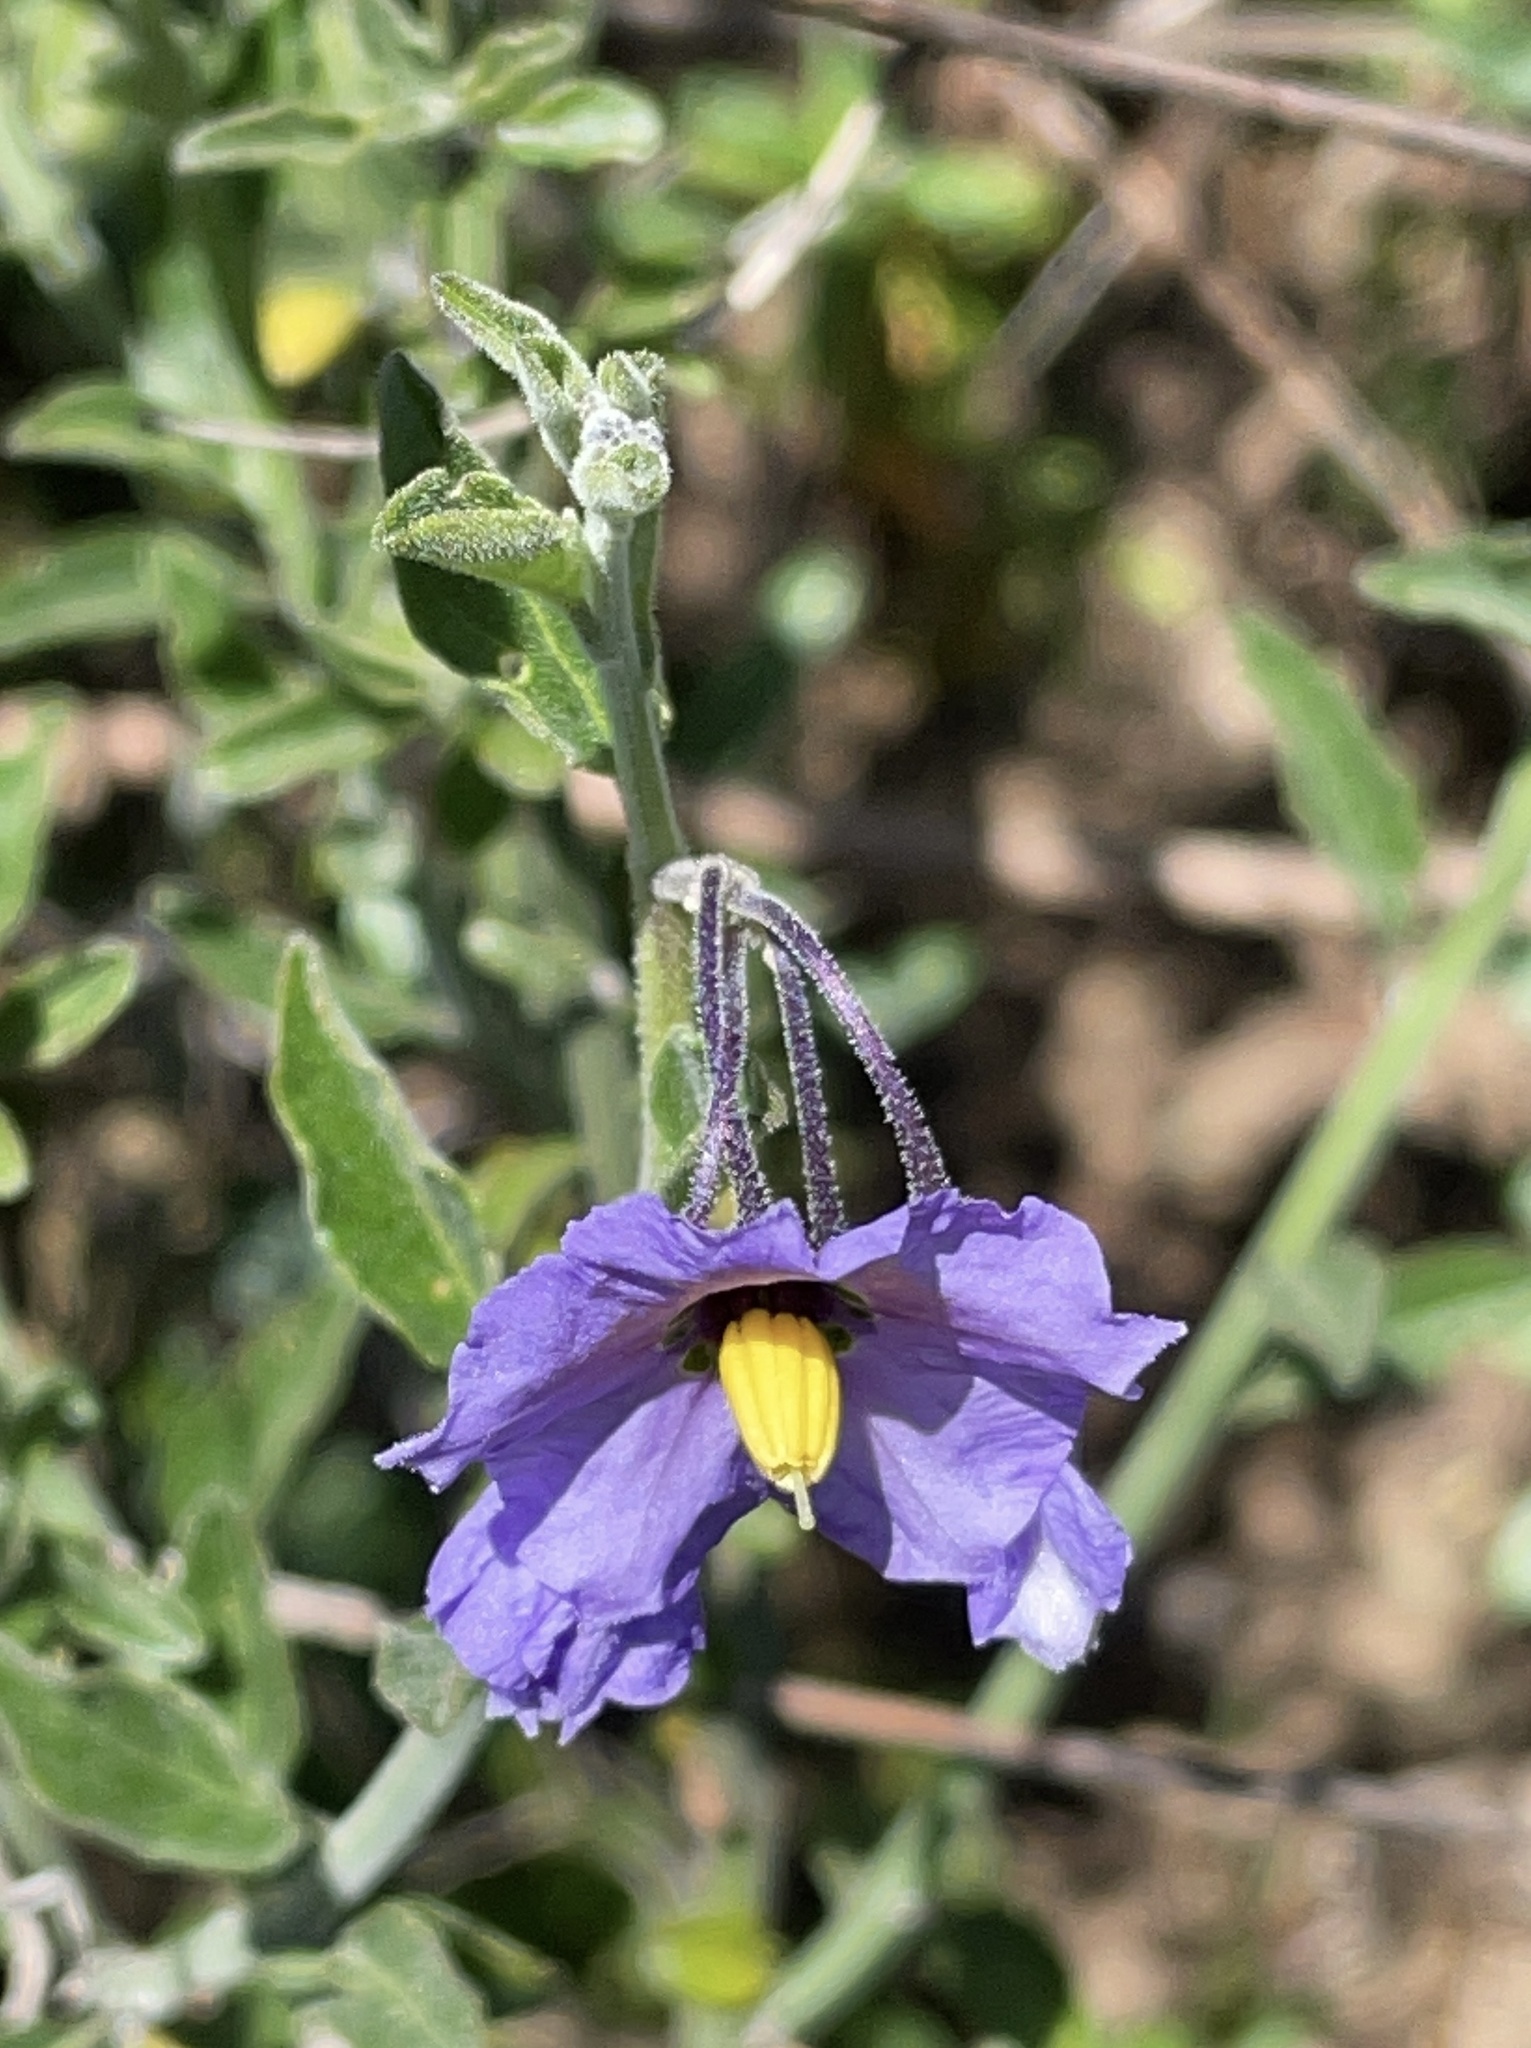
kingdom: Plantae
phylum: Tracheophyta
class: Magnoliopsida
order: Solanales
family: Solanaceae
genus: Solanum
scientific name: Solanum umbelliferum
